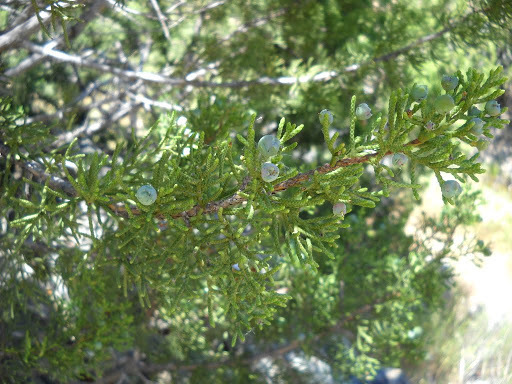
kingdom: Plantae
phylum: Tracheophyta
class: Pinopsida
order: Pinales
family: Cupressaceae
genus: Juniperus
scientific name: Juniperus californica
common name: California juniper
